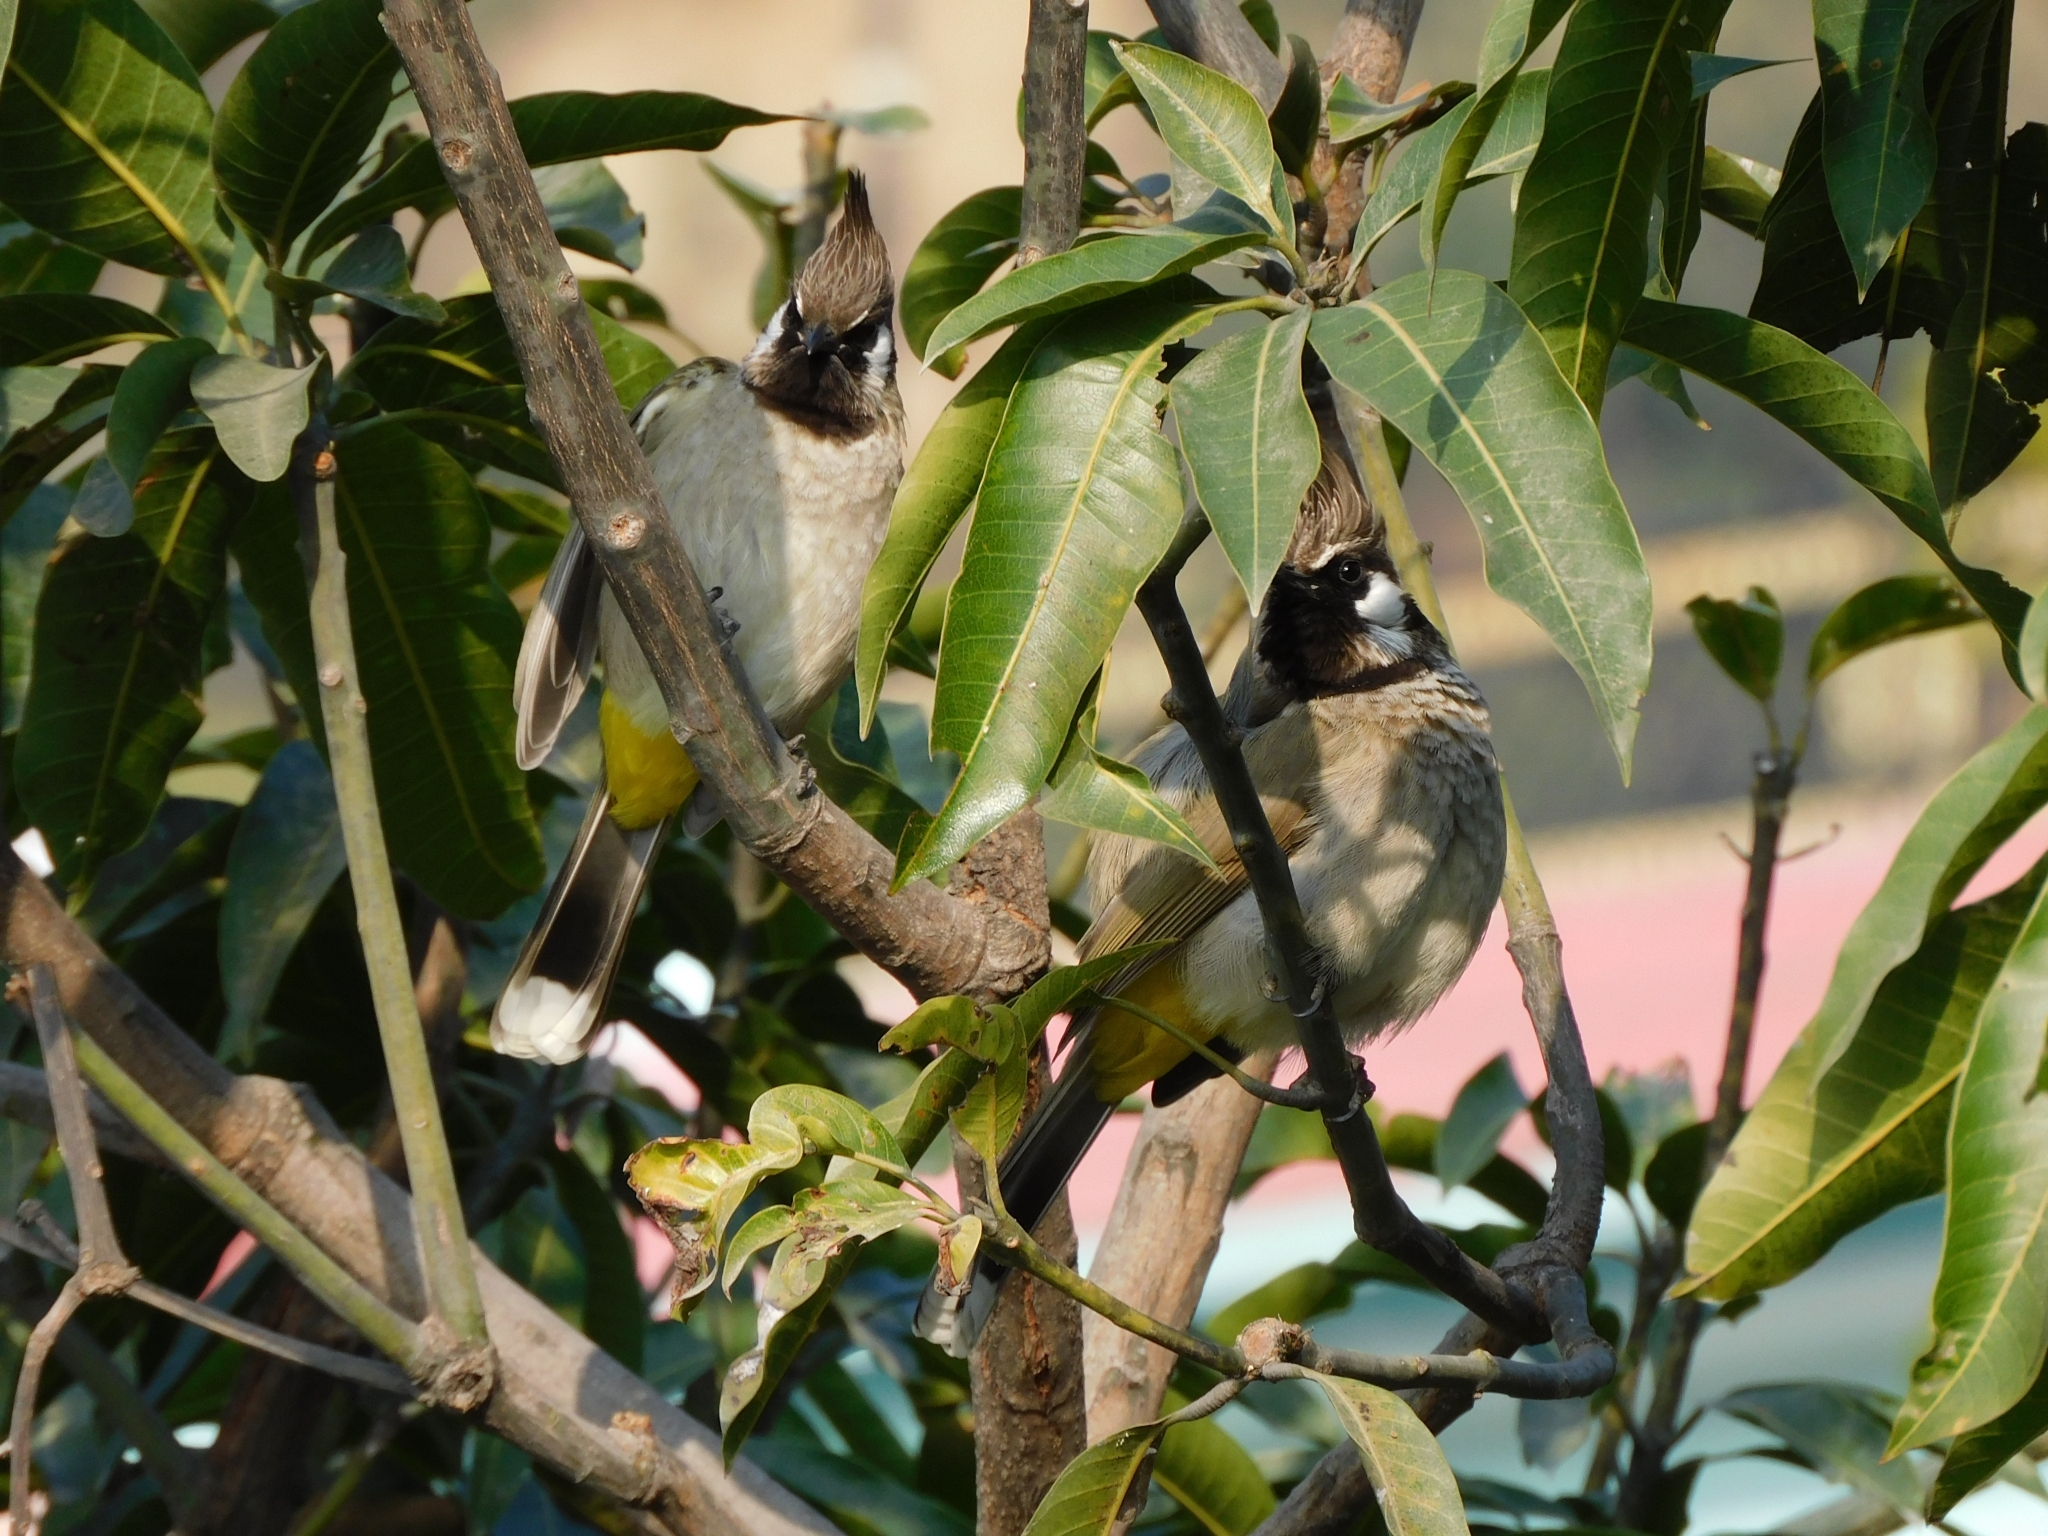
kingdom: Animalia
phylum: Chordata
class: Aves
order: Passeriformes
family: Pycnonotidae
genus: Pycnonotus
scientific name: Pycnonotus leucogenys
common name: Himalayan bulbul
